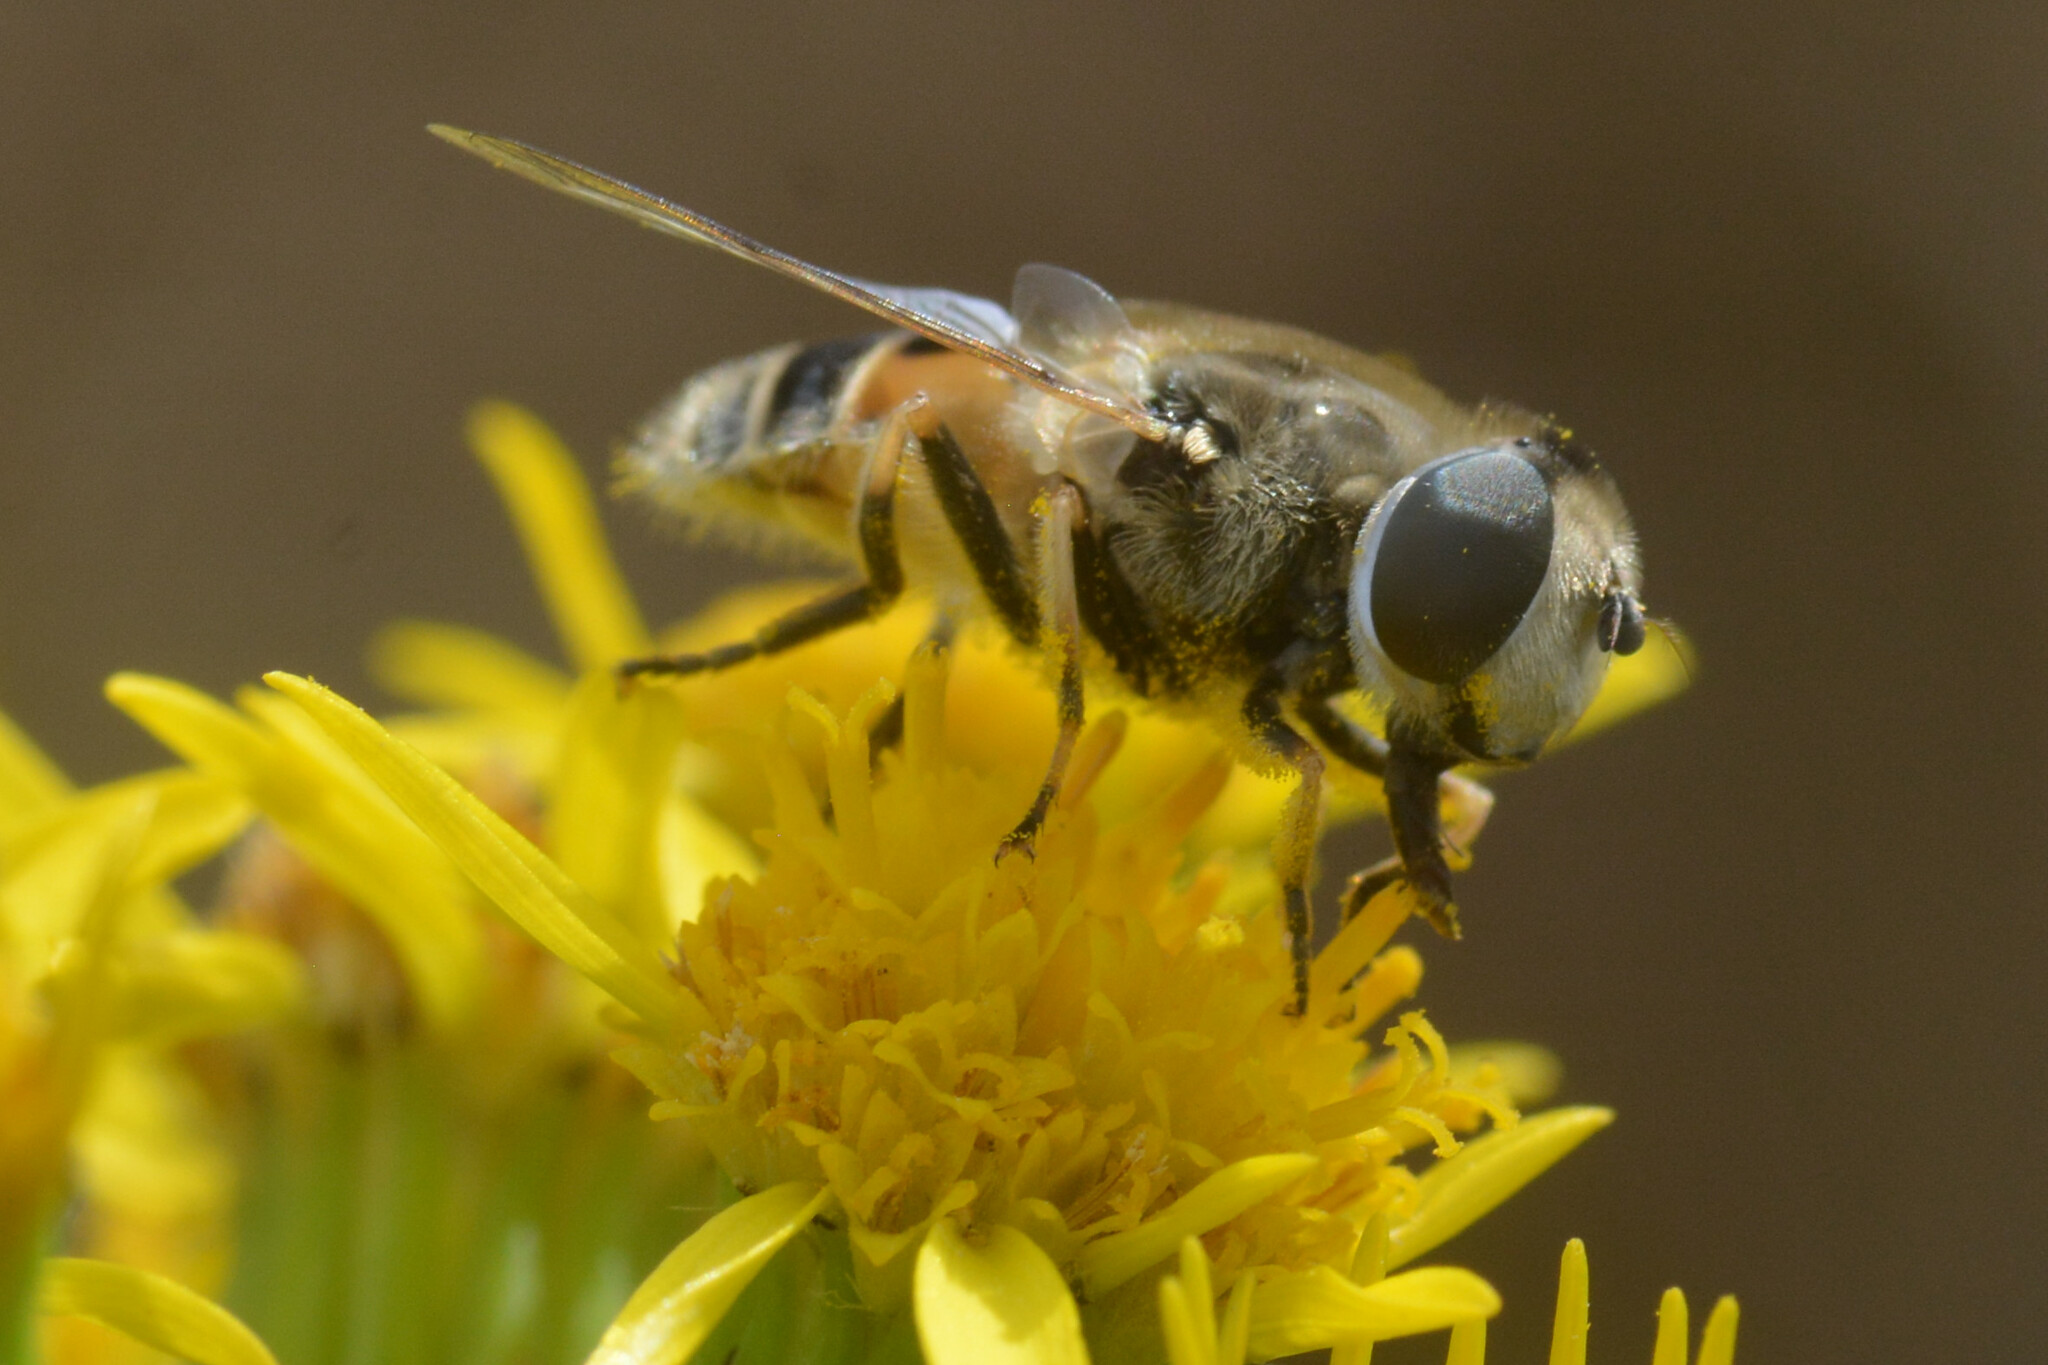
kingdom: Animalia
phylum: Arthropoda
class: Insecta
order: Diptera
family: Syrphidae
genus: Eristalis
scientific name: Eristalis arbustorum
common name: Hover fly
